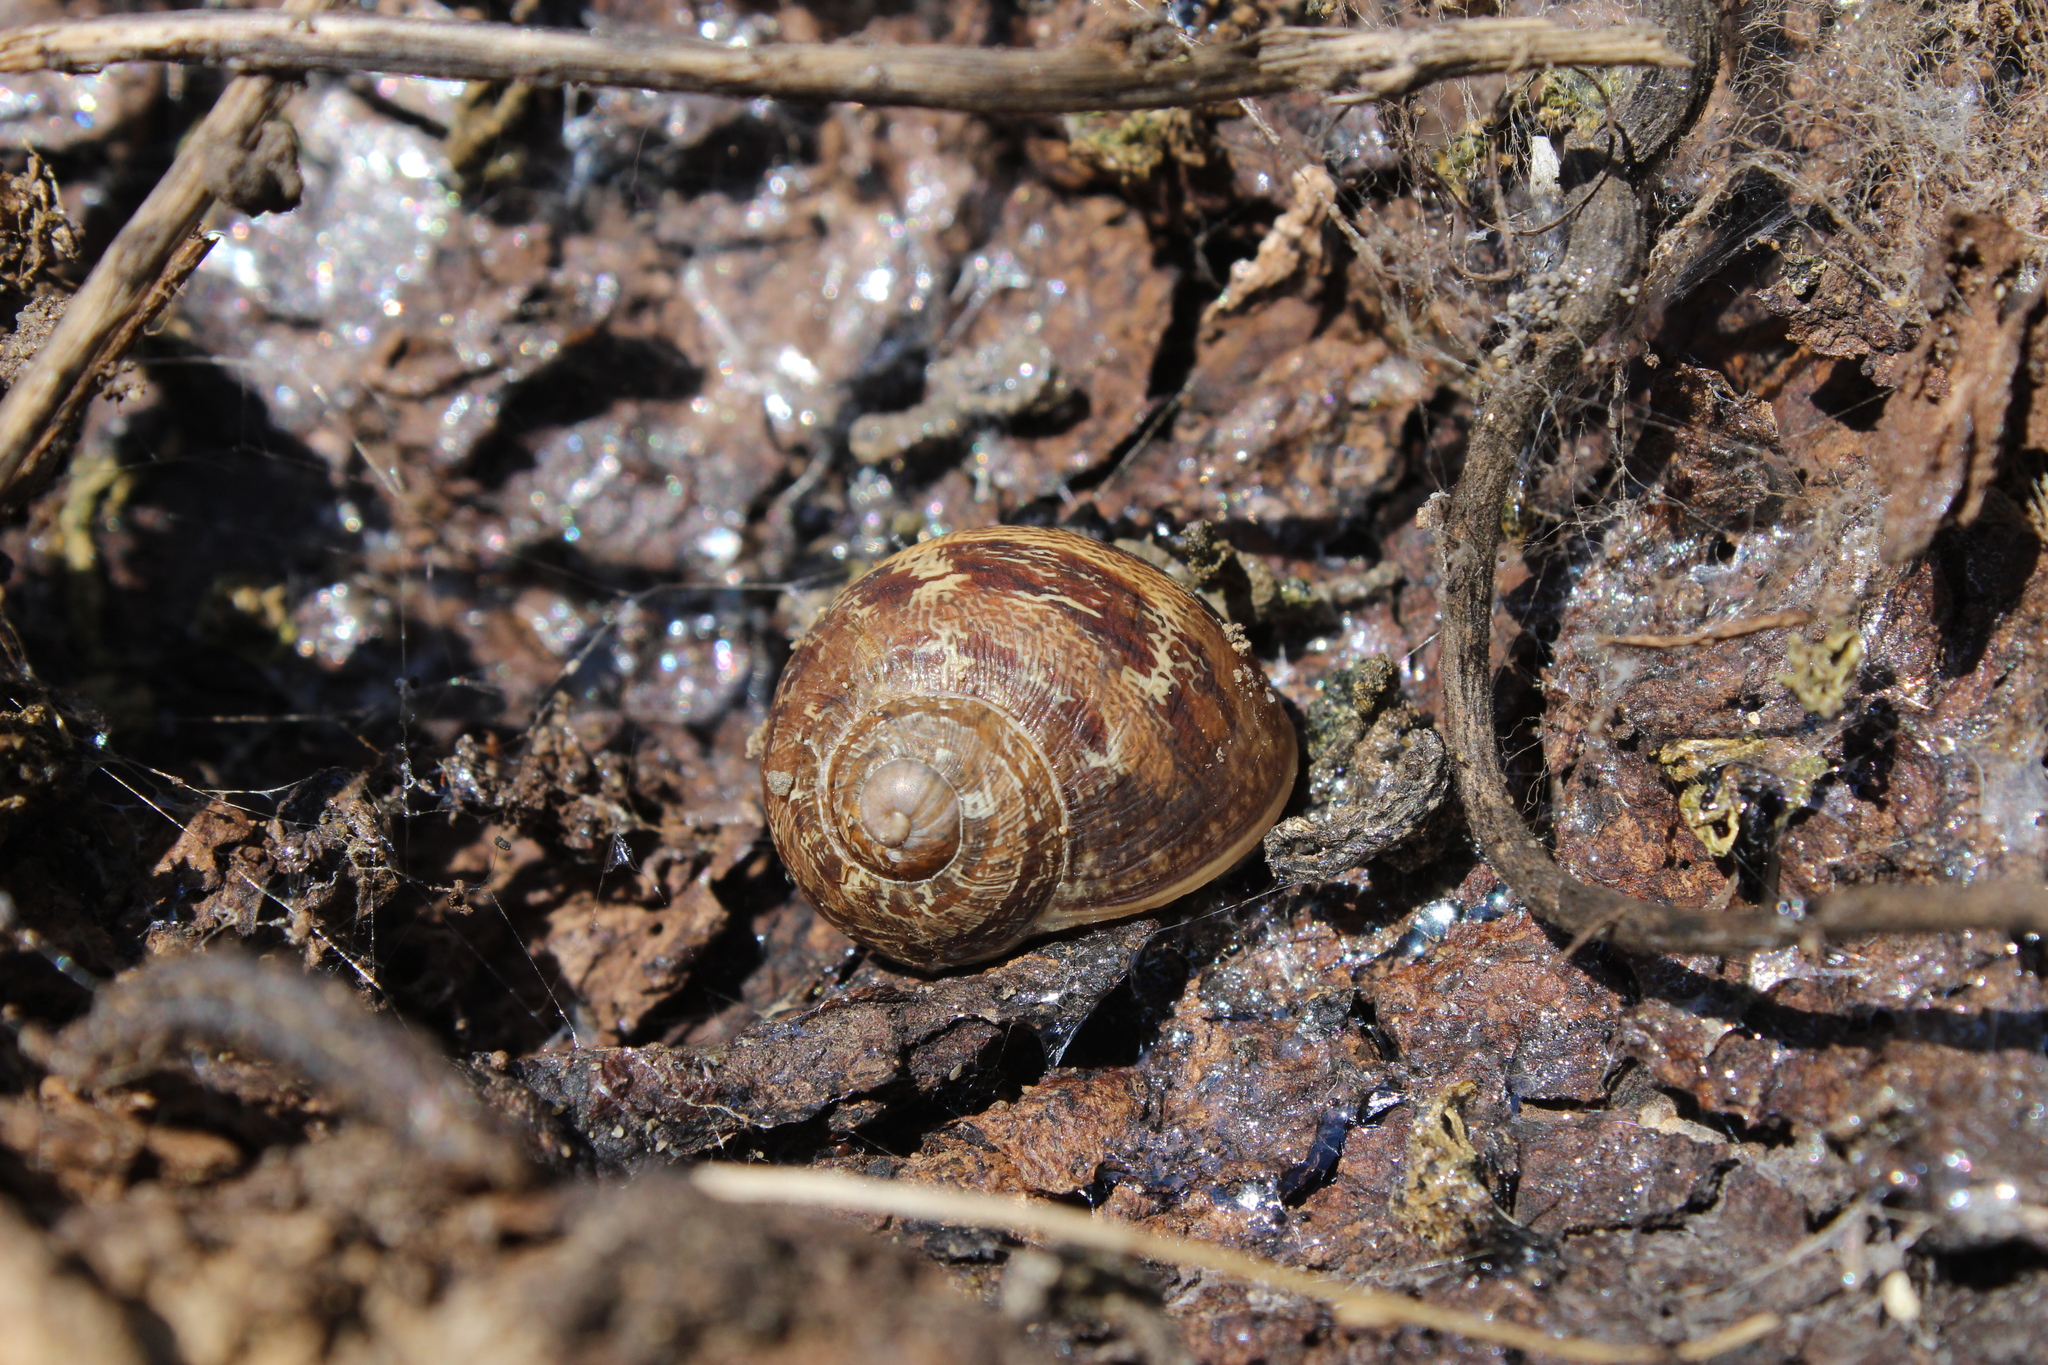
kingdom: Animalia
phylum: Mollusca
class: Gastropoda
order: Stylommatophora
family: Helicidae
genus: Cornu
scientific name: Cornu aspersum
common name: Brown garden snail
